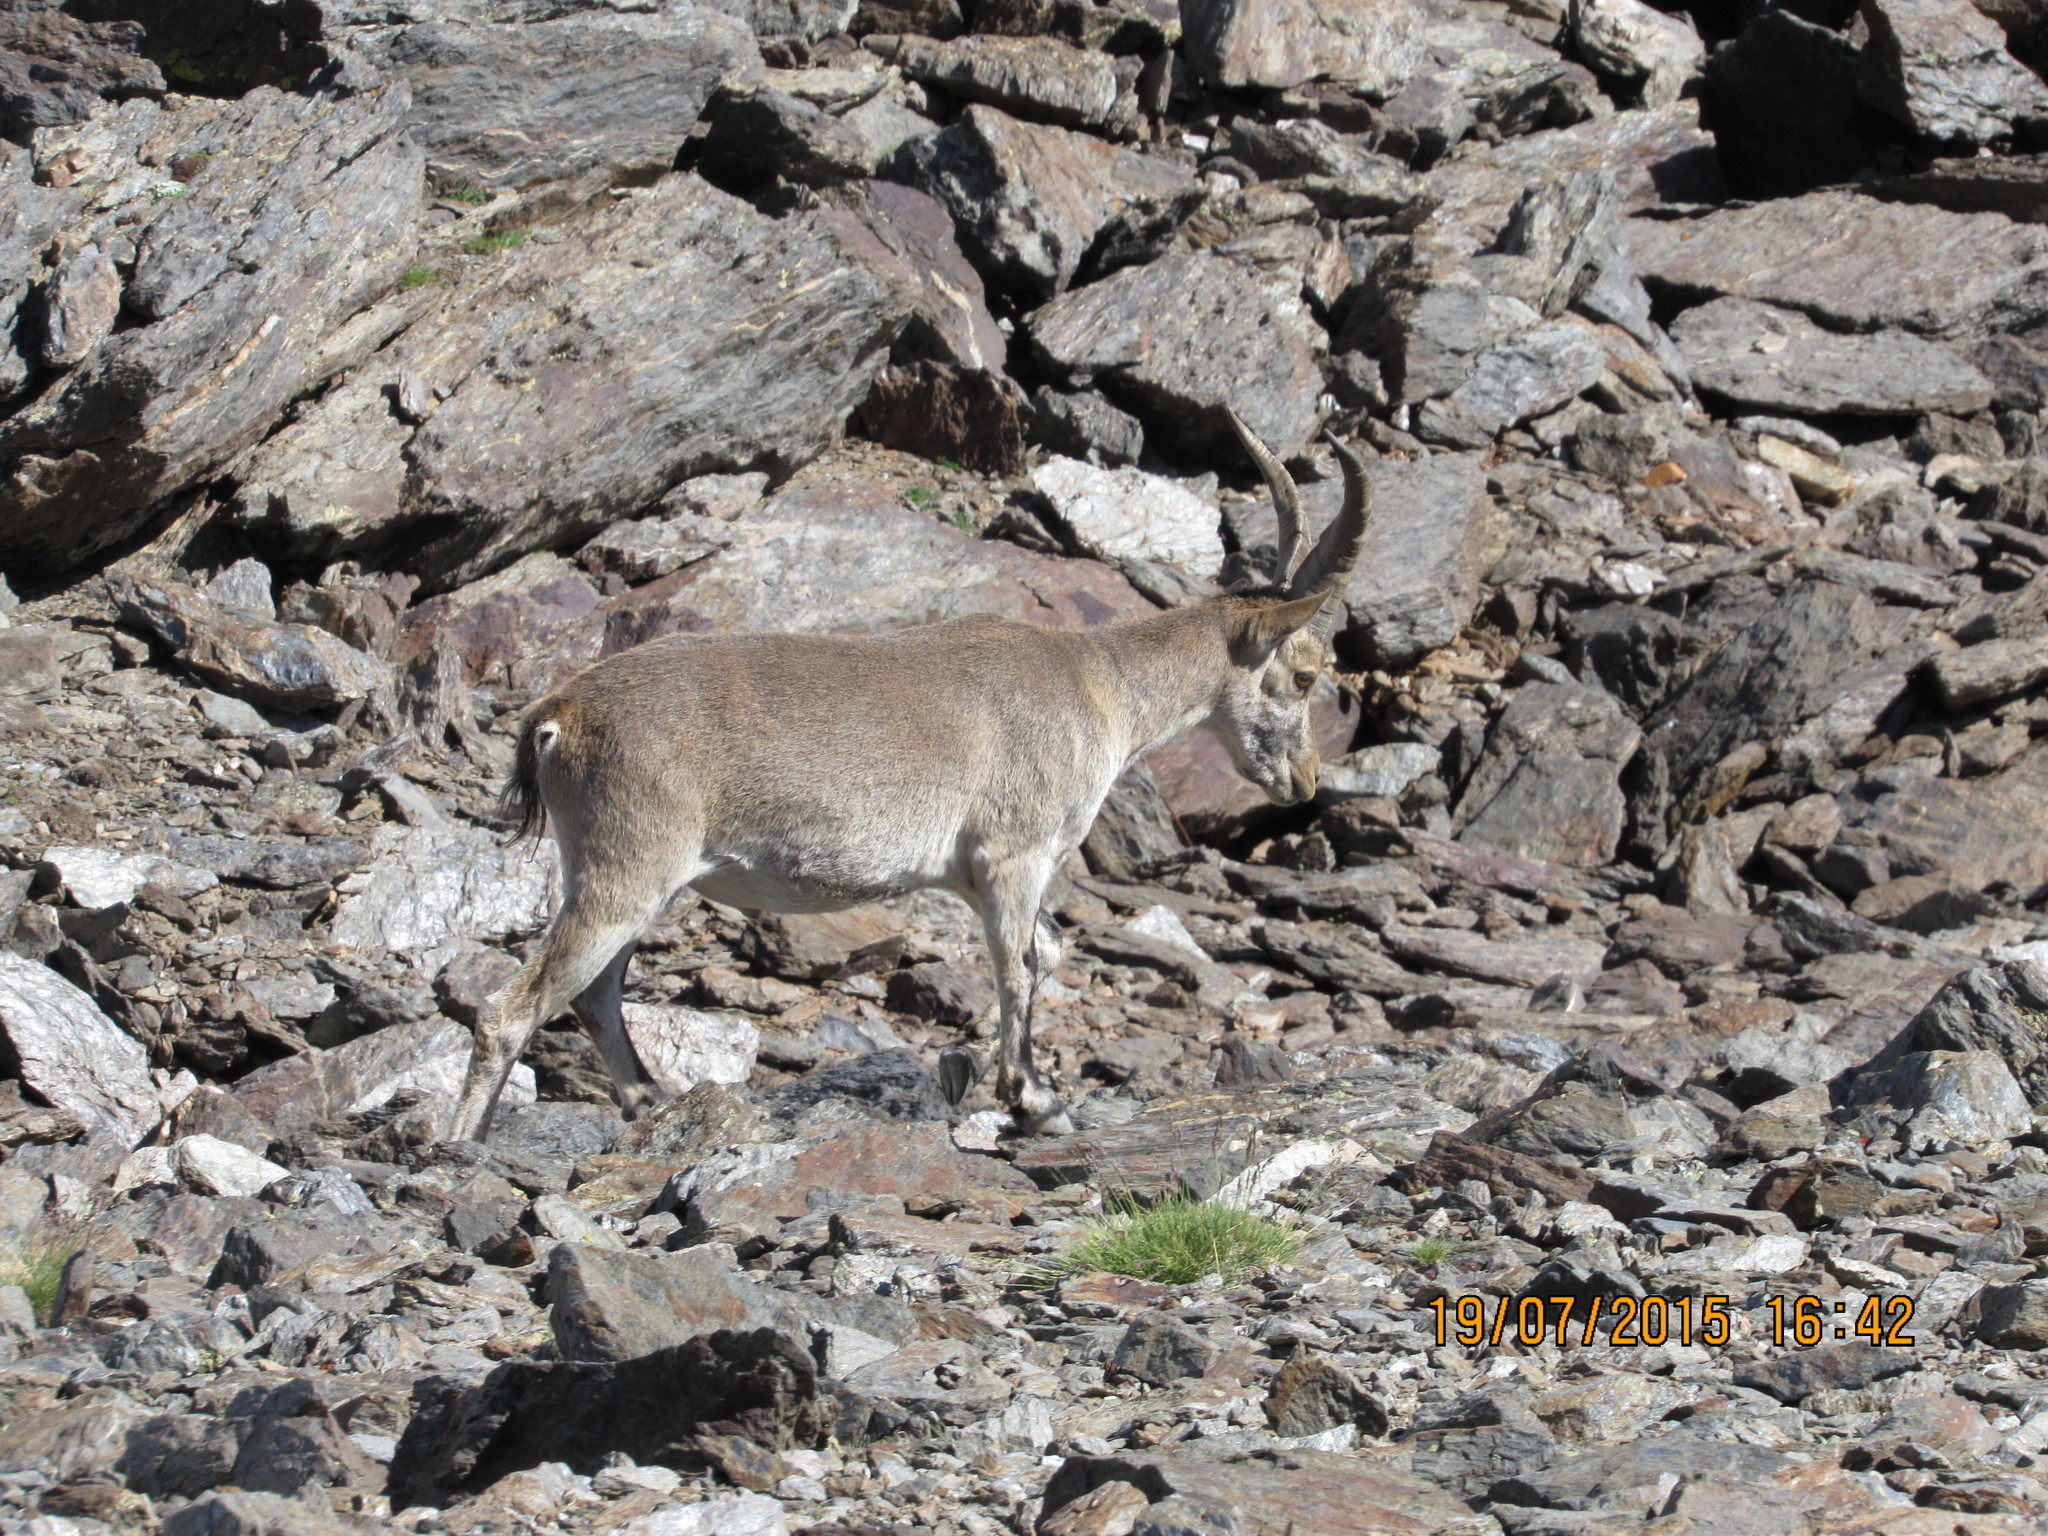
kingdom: Animalia
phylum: Chordata
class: Mammalia
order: Artiodactyla
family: Bovidae
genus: Capra
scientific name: Capra pyrenaica
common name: Spanish ibex
